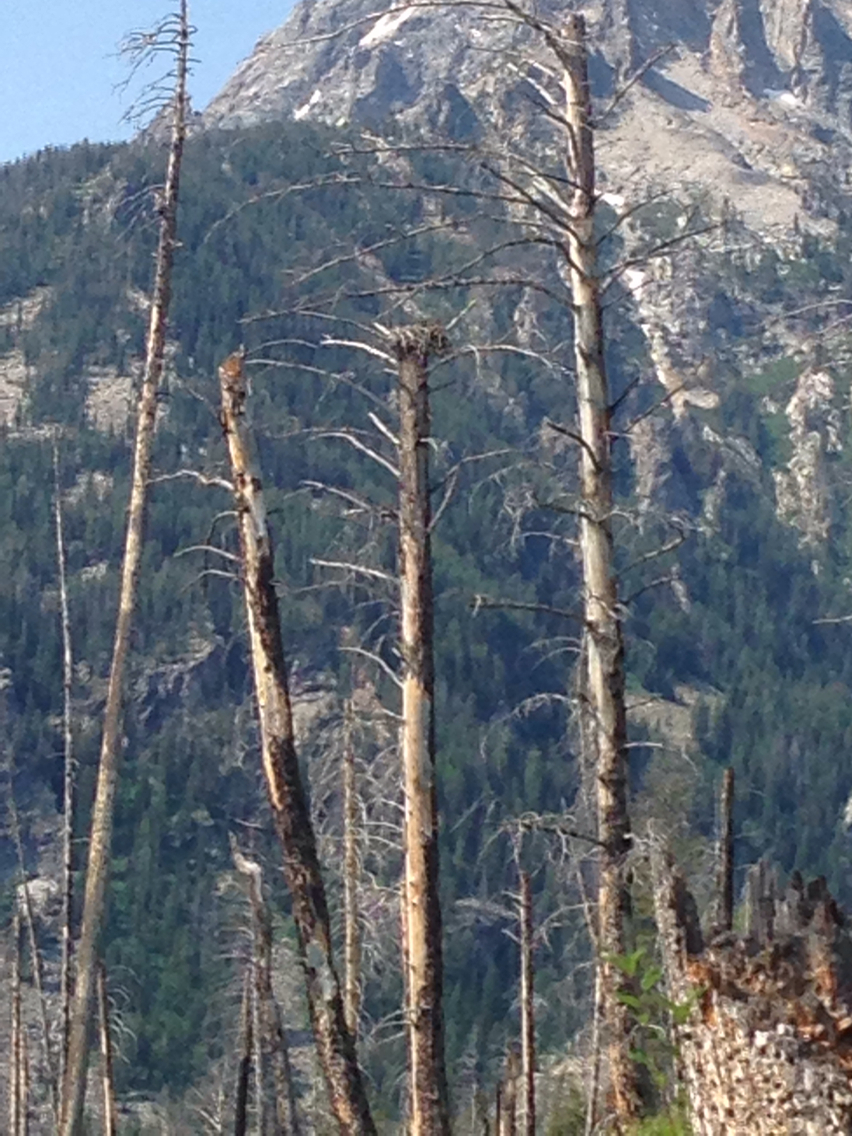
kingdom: Animalia
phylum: Chordata
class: Aves
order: Accipitriformes
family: Pandionidae
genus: Pandion
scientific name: Pandion haliaetus
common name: Osprey
